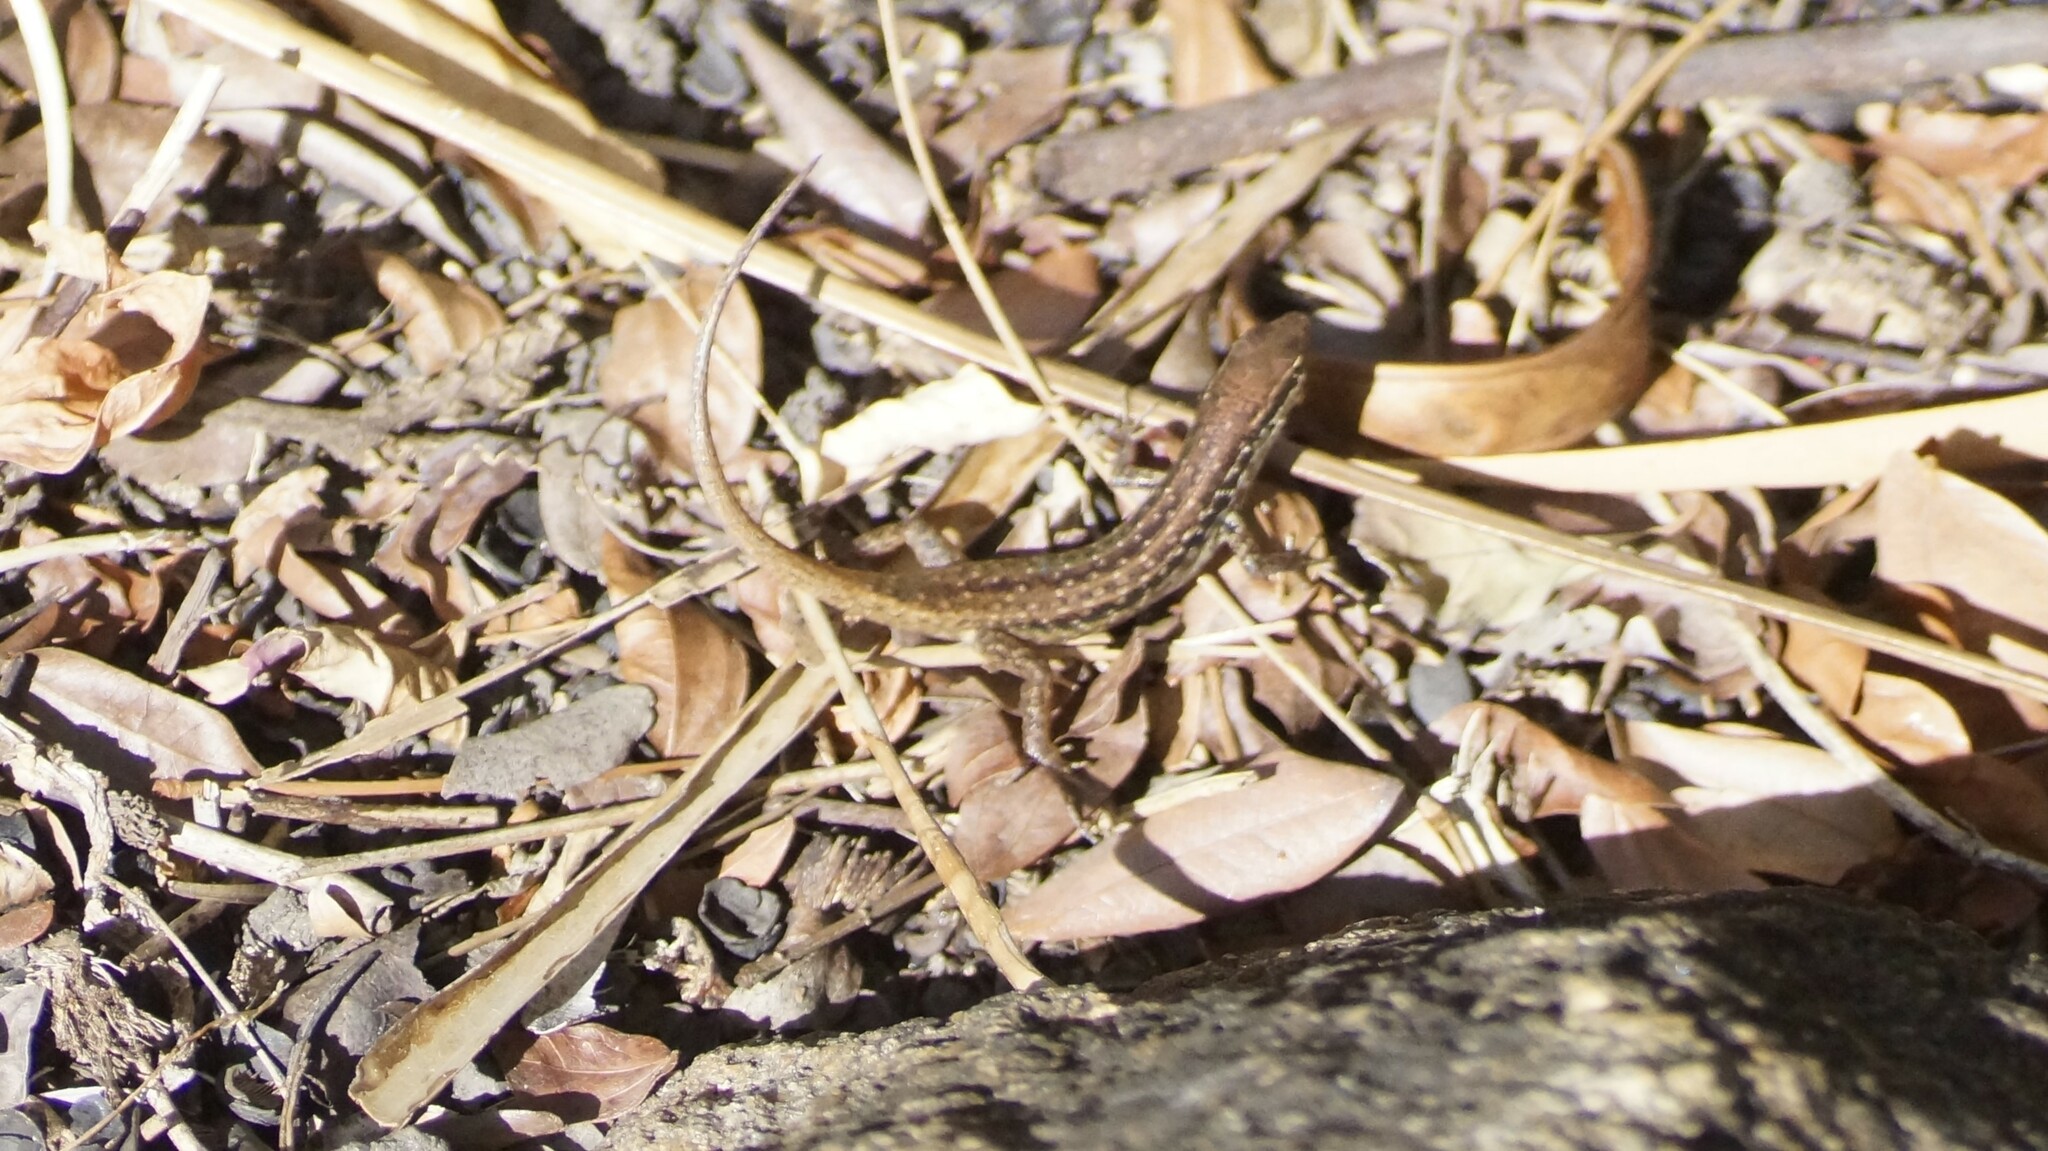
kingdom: Animalia
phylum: Chordata
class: Squamata
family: Scincidae
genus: Carlia
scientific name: Carlia sexdentata
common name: Closed-litter rainbow-skink
